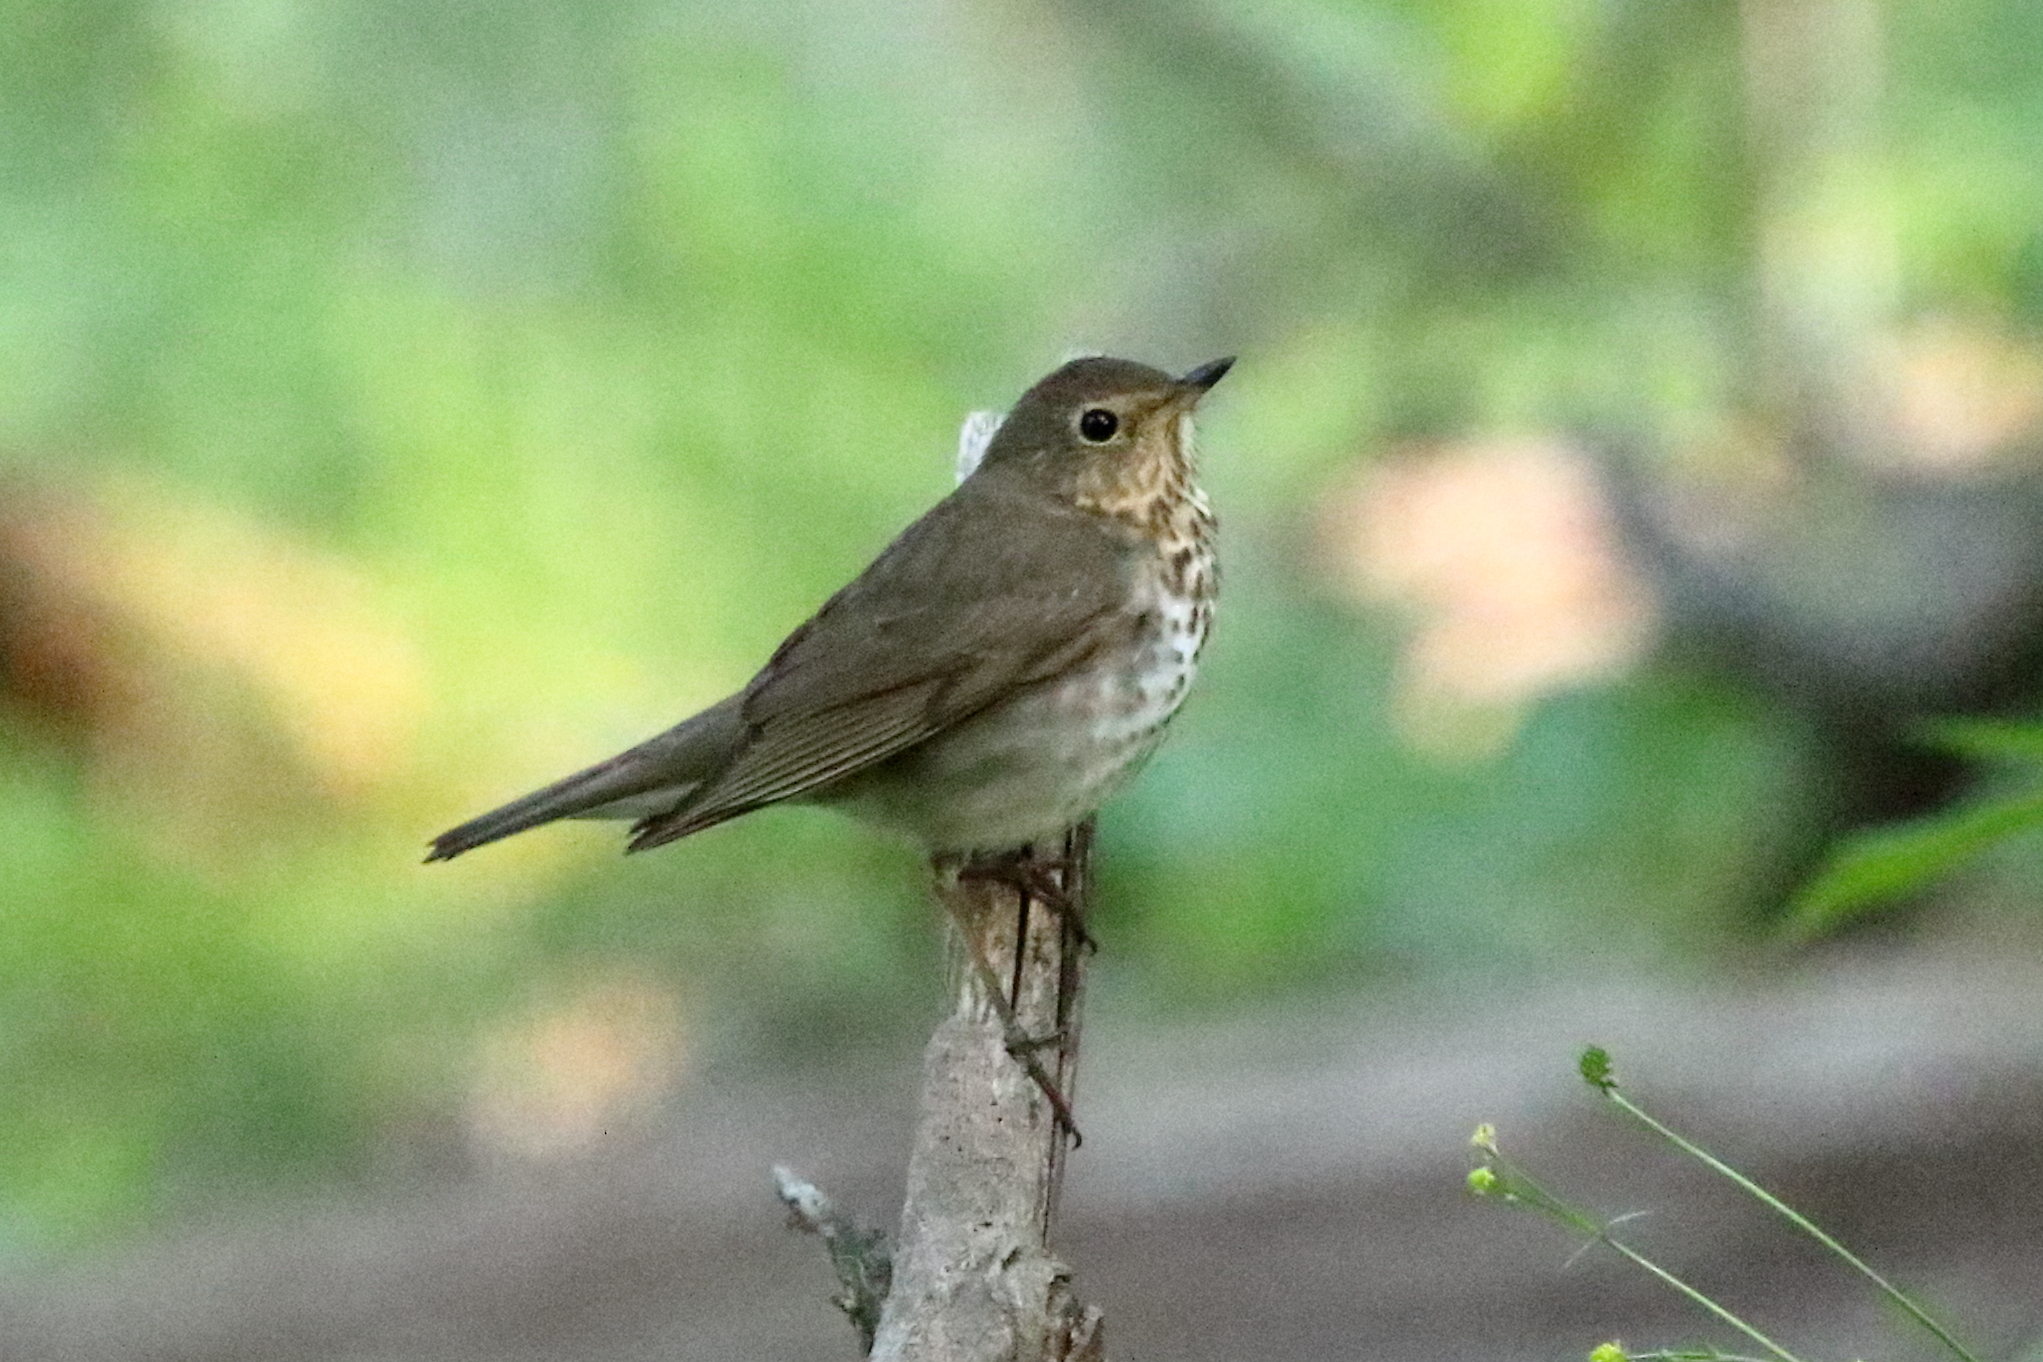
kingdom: Animalia
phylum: Chordata
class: Aves
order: Passeriformes
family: Turdidae
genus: Catharus
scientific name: Catharus ustulatus
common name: Swainson's thrush
